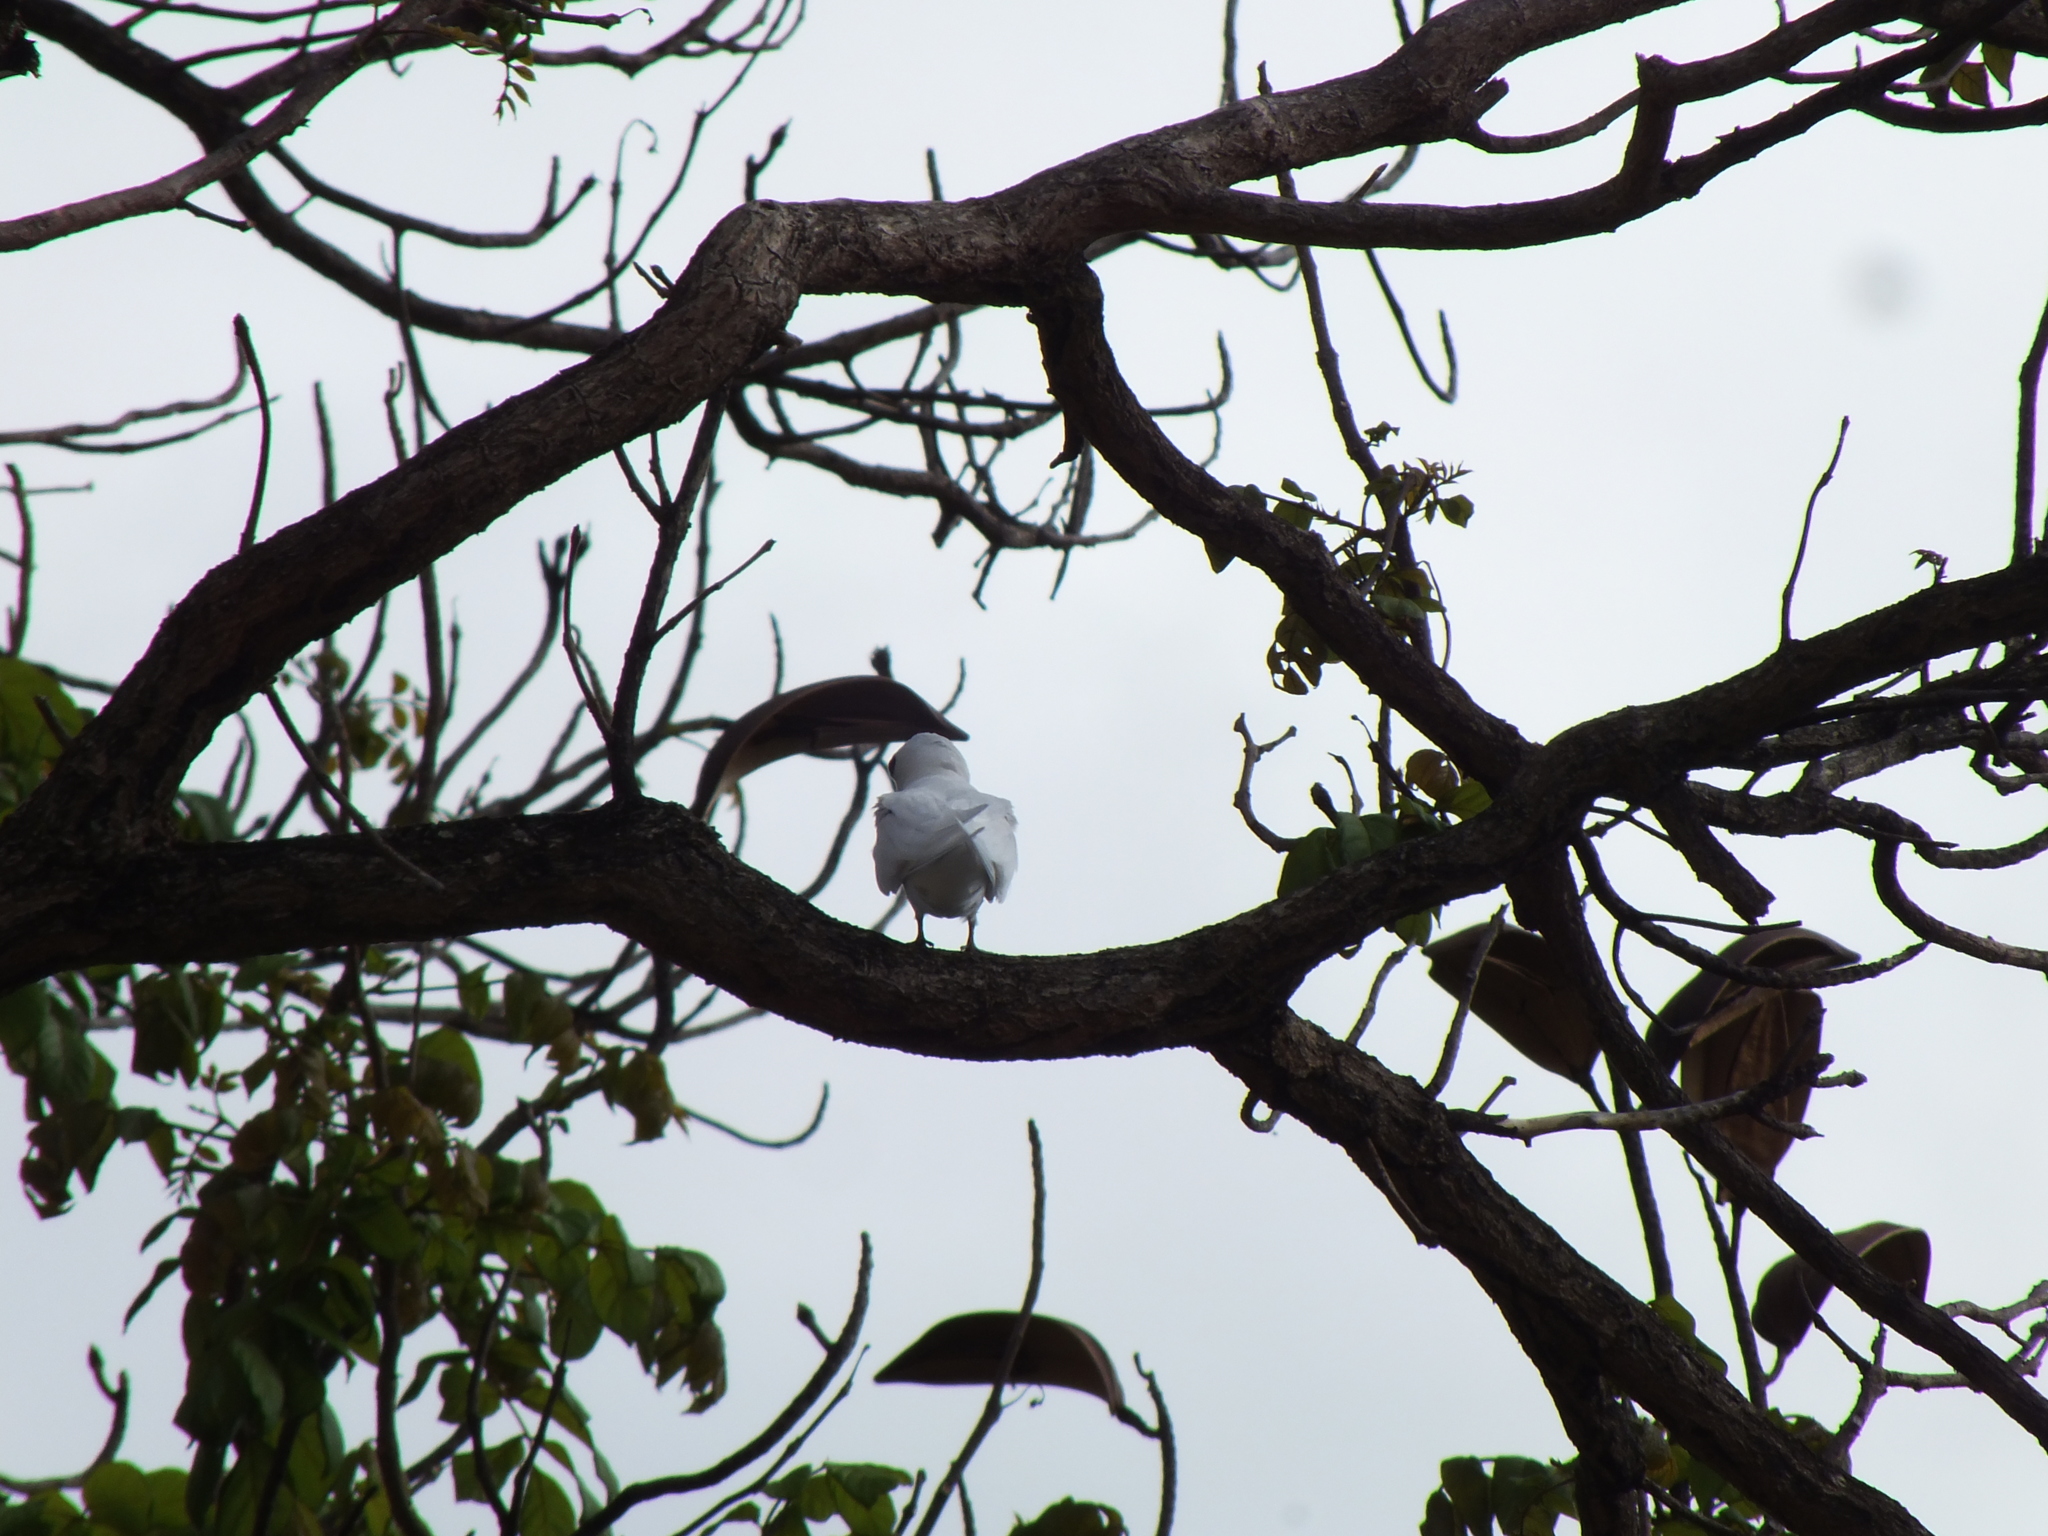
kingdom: Animalia
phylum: Chordata
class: Aves
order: Charadriiformes
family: Laridae
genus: Gygis
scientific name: Gygis alba
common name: White tern
